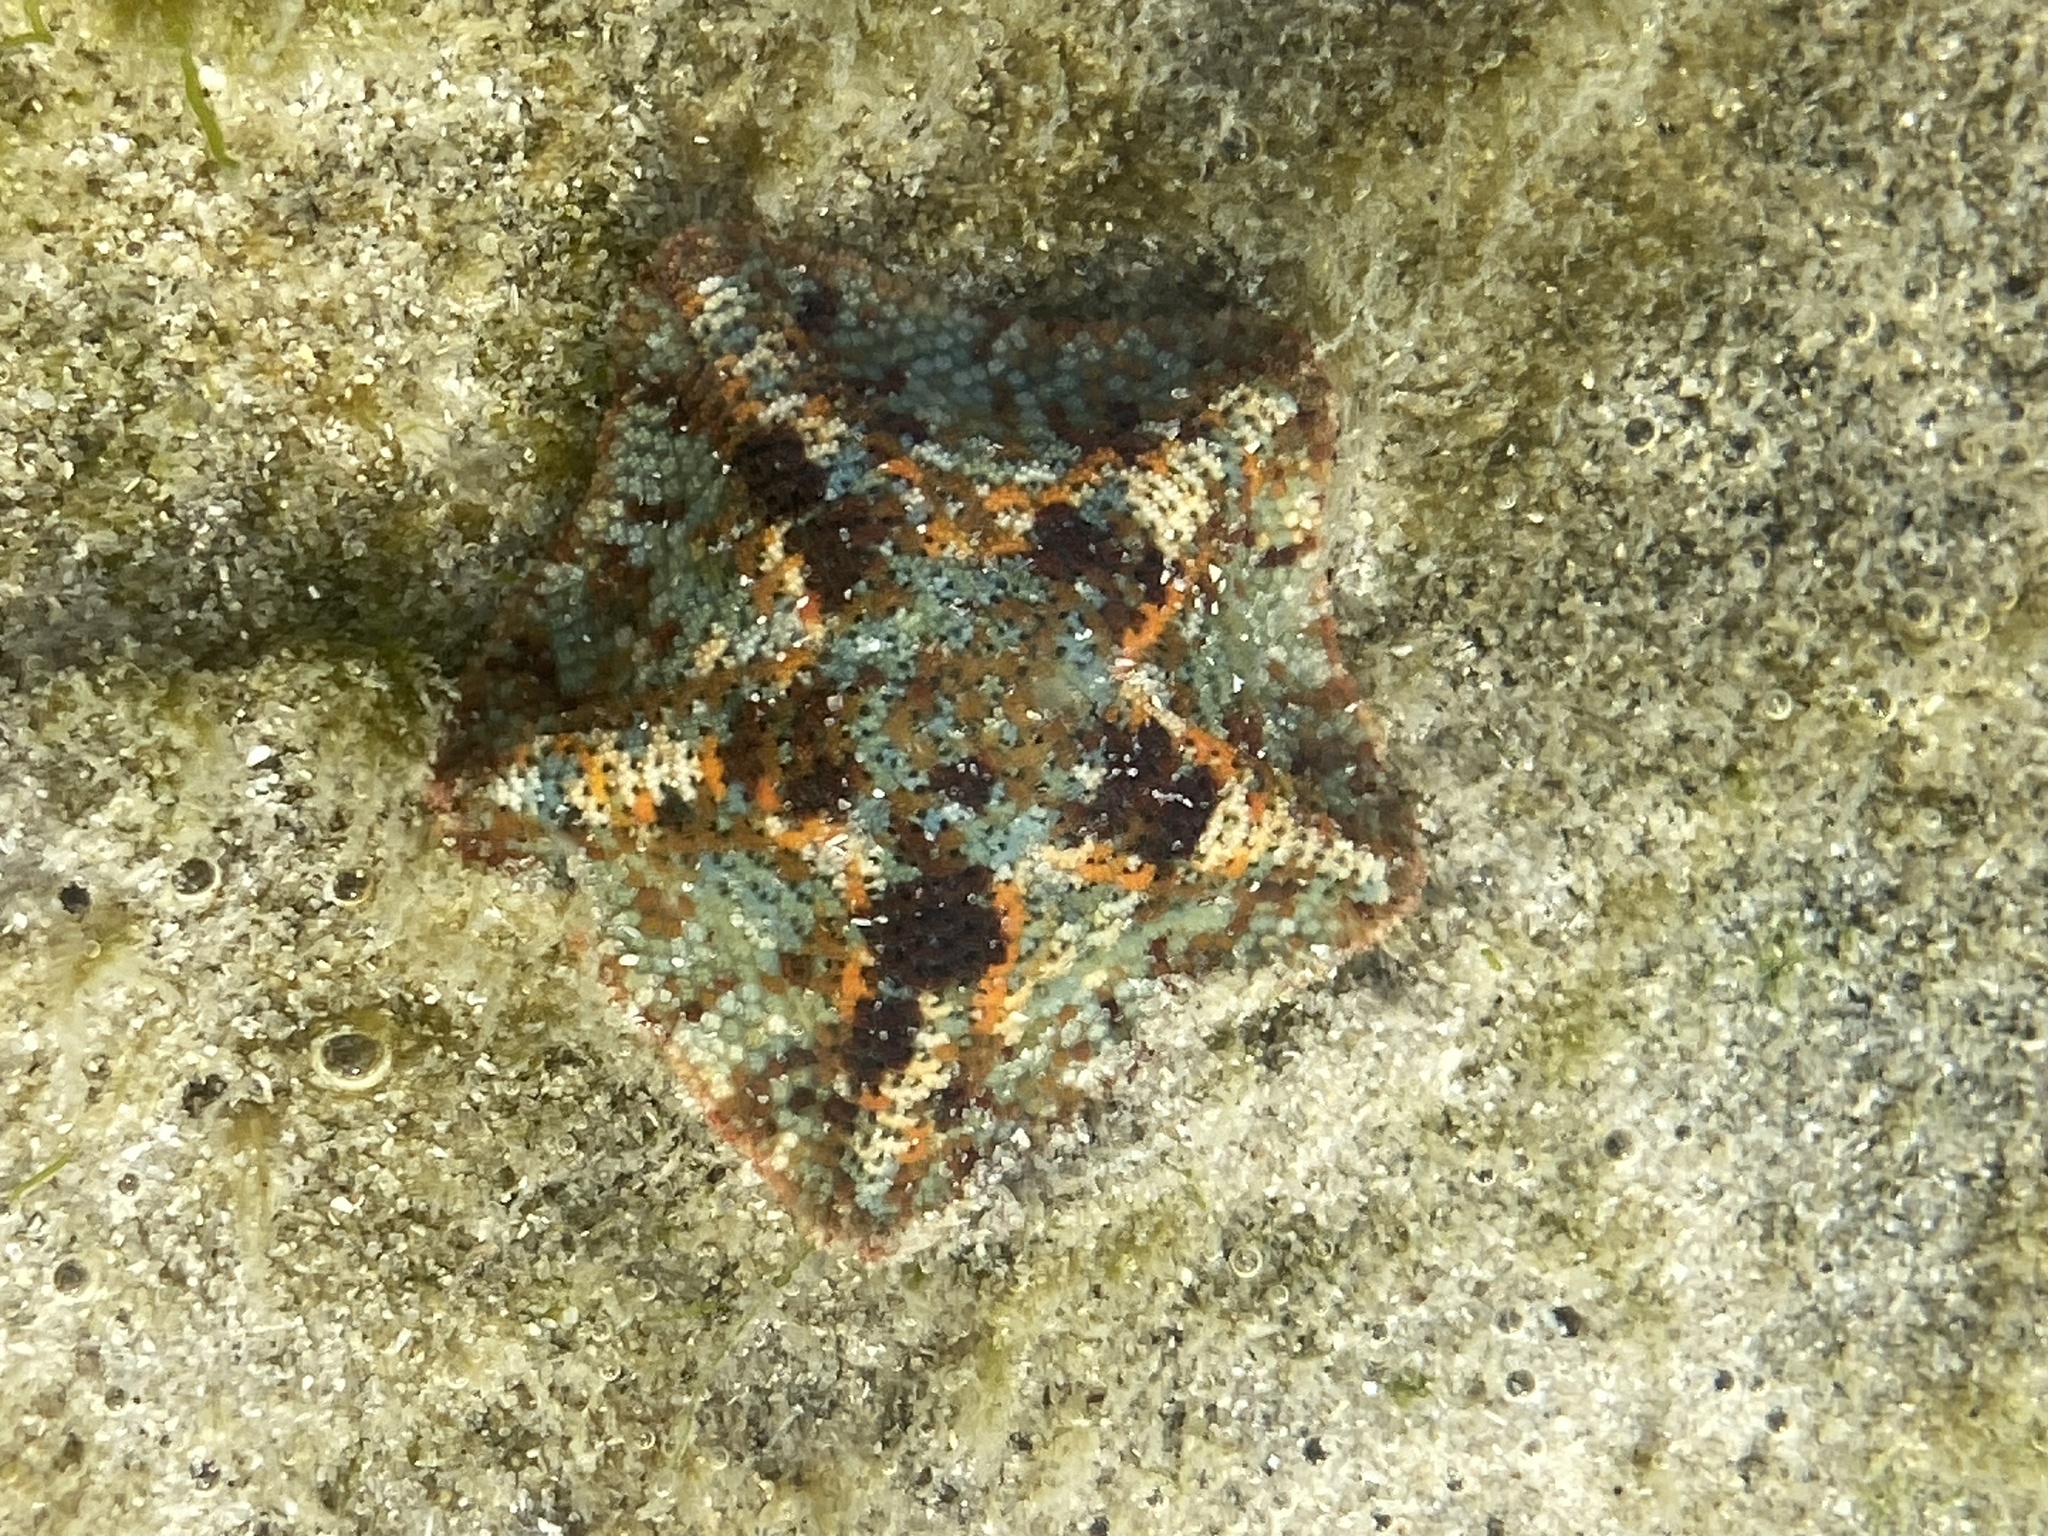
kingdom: Animalia
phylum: Echinodermata
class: Asteroidea
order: Valvatida
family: Asterinidae
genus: Parvulastra
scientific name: Parvulastra exigua
